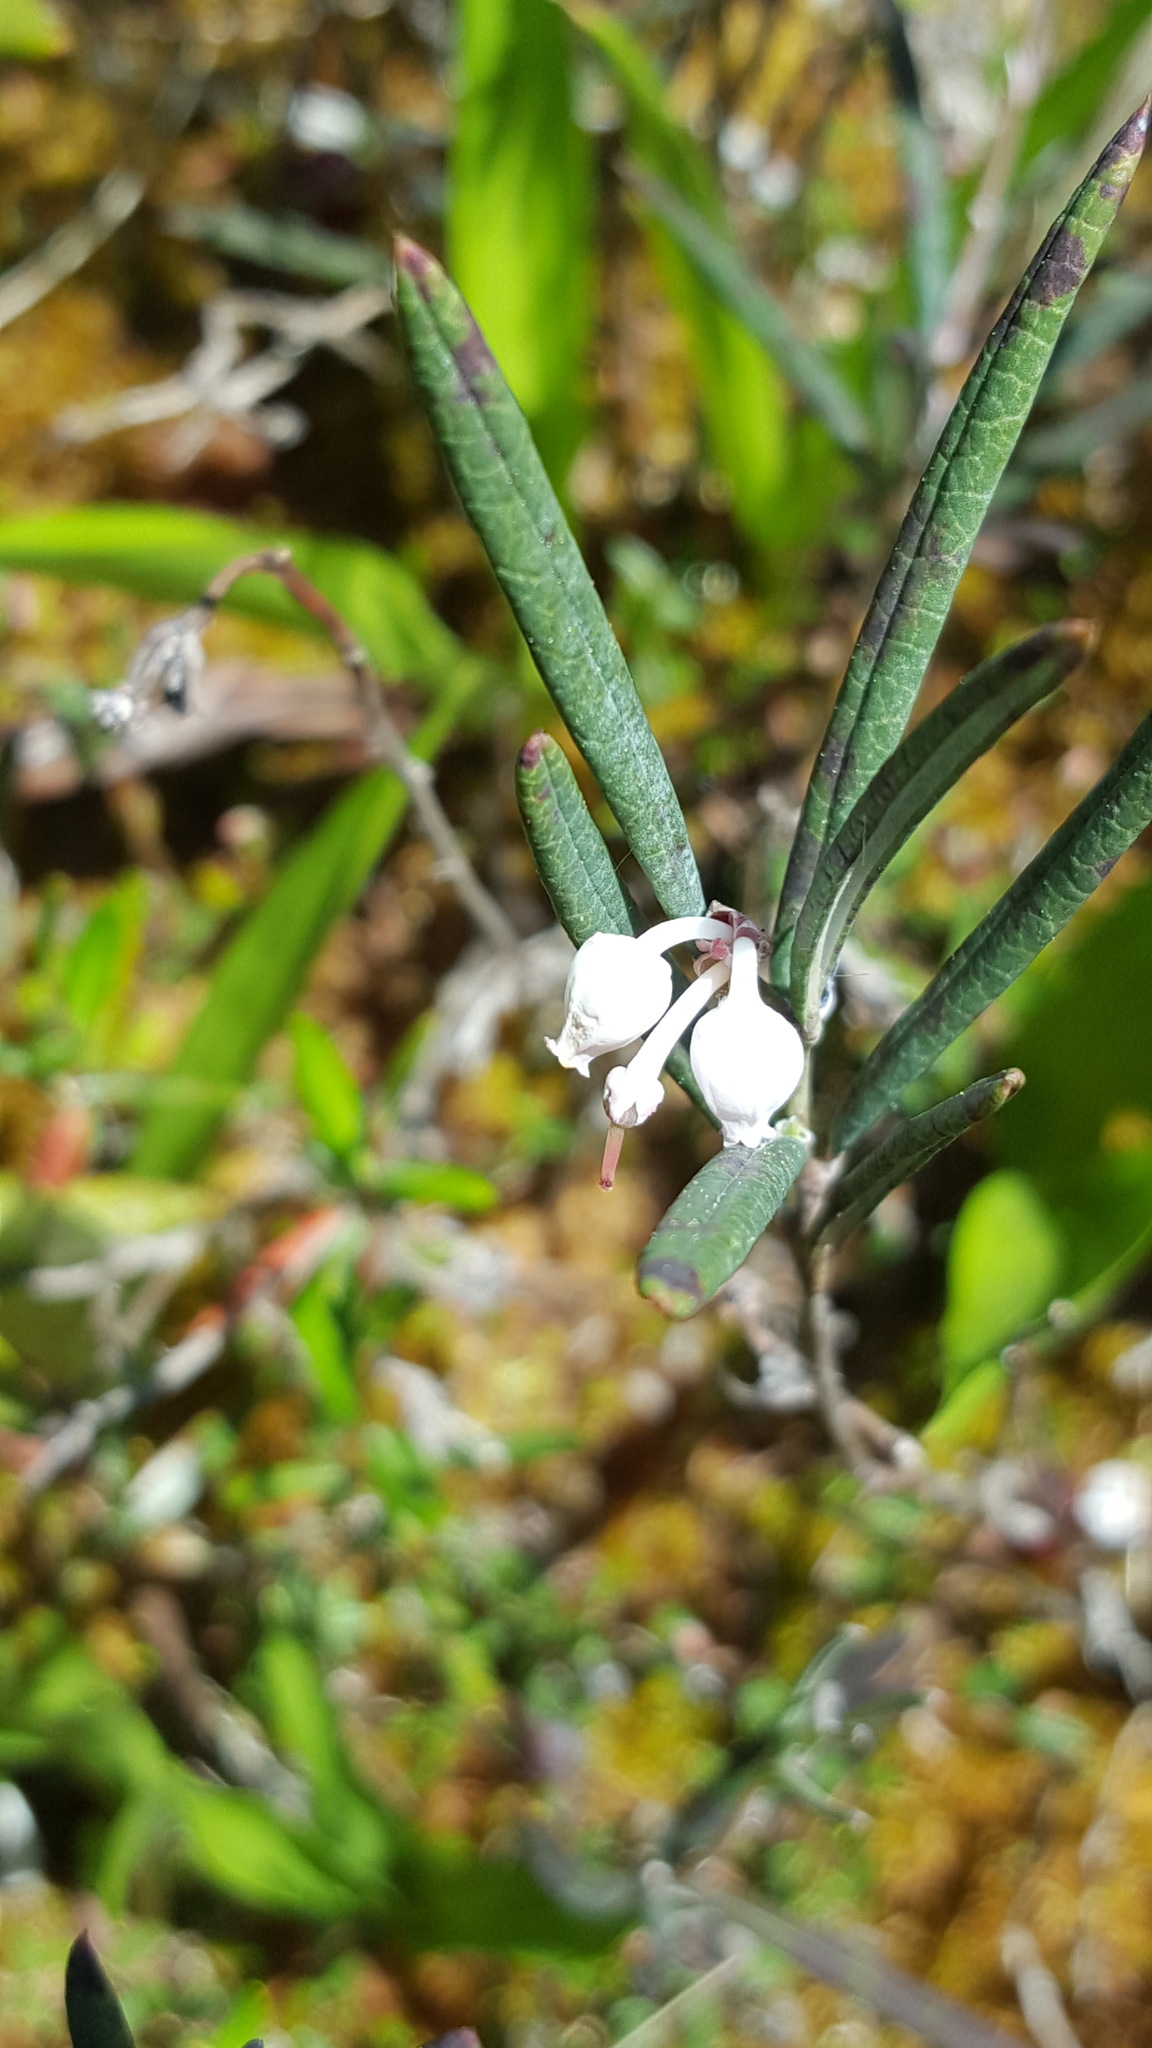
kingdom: Plantae
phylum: Tracheophyta
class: Magnoliopsida
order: Ericales
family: Ericaceae
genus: Andromeda
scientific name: Andromeda polifolia
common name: Bog-rosemary
